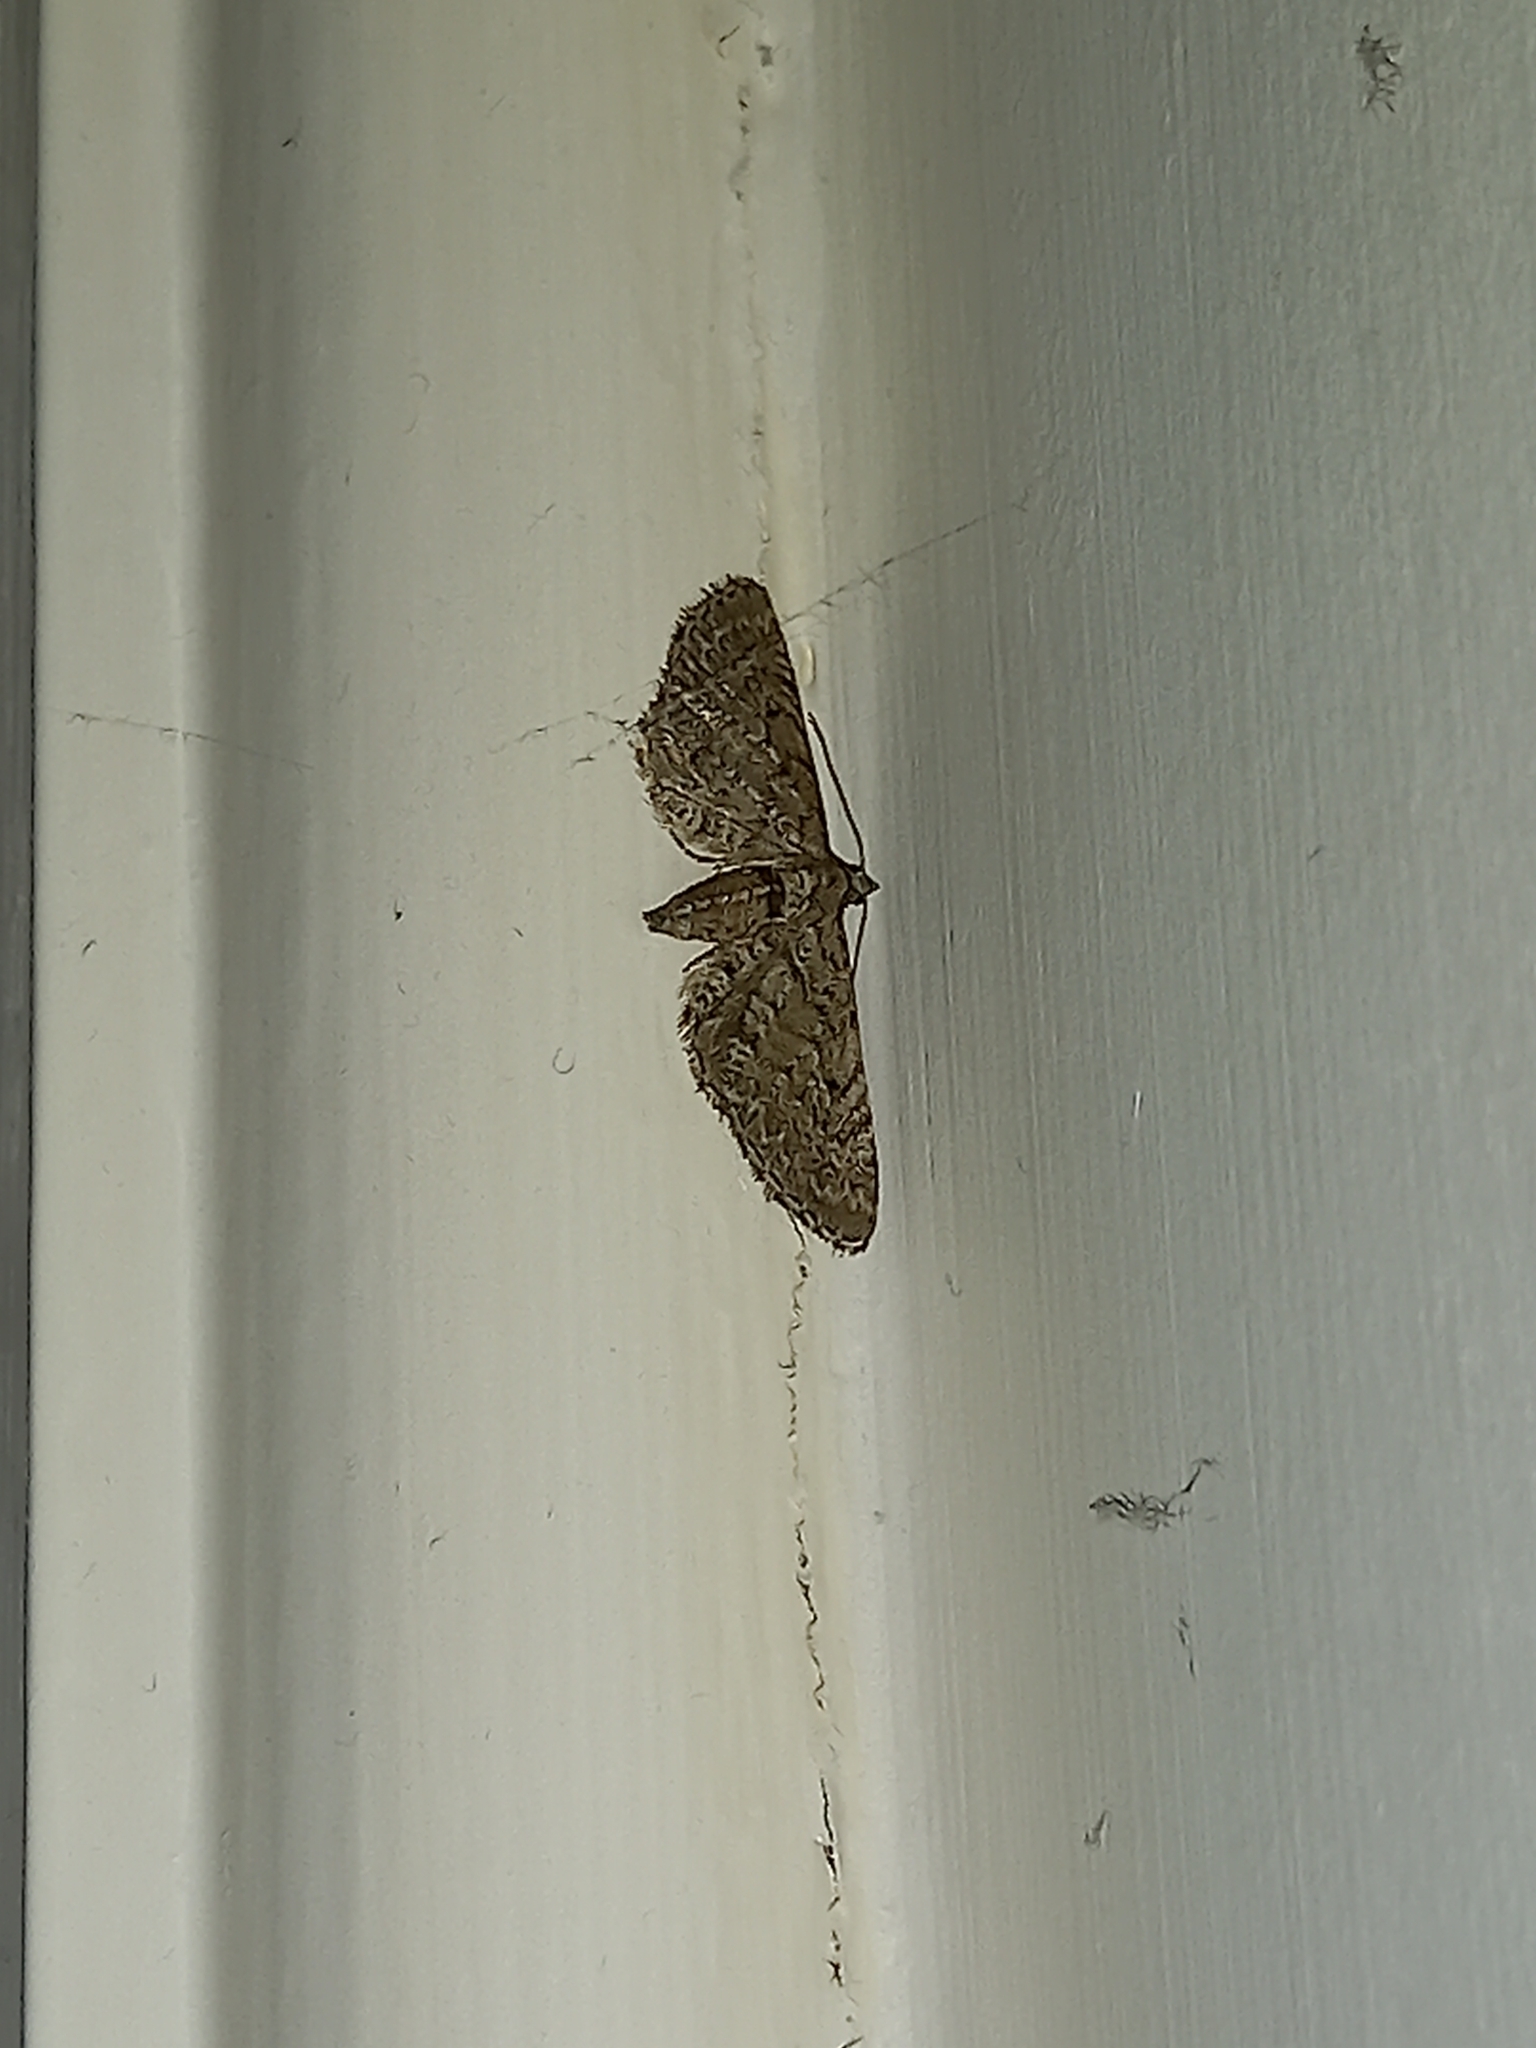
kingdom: Animalia
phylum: Arthropoda
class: Insecta
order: Lepidoptera
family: Geometridae
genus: Eupithecia
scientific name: Eupithecia intricata
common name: Freyers pug
